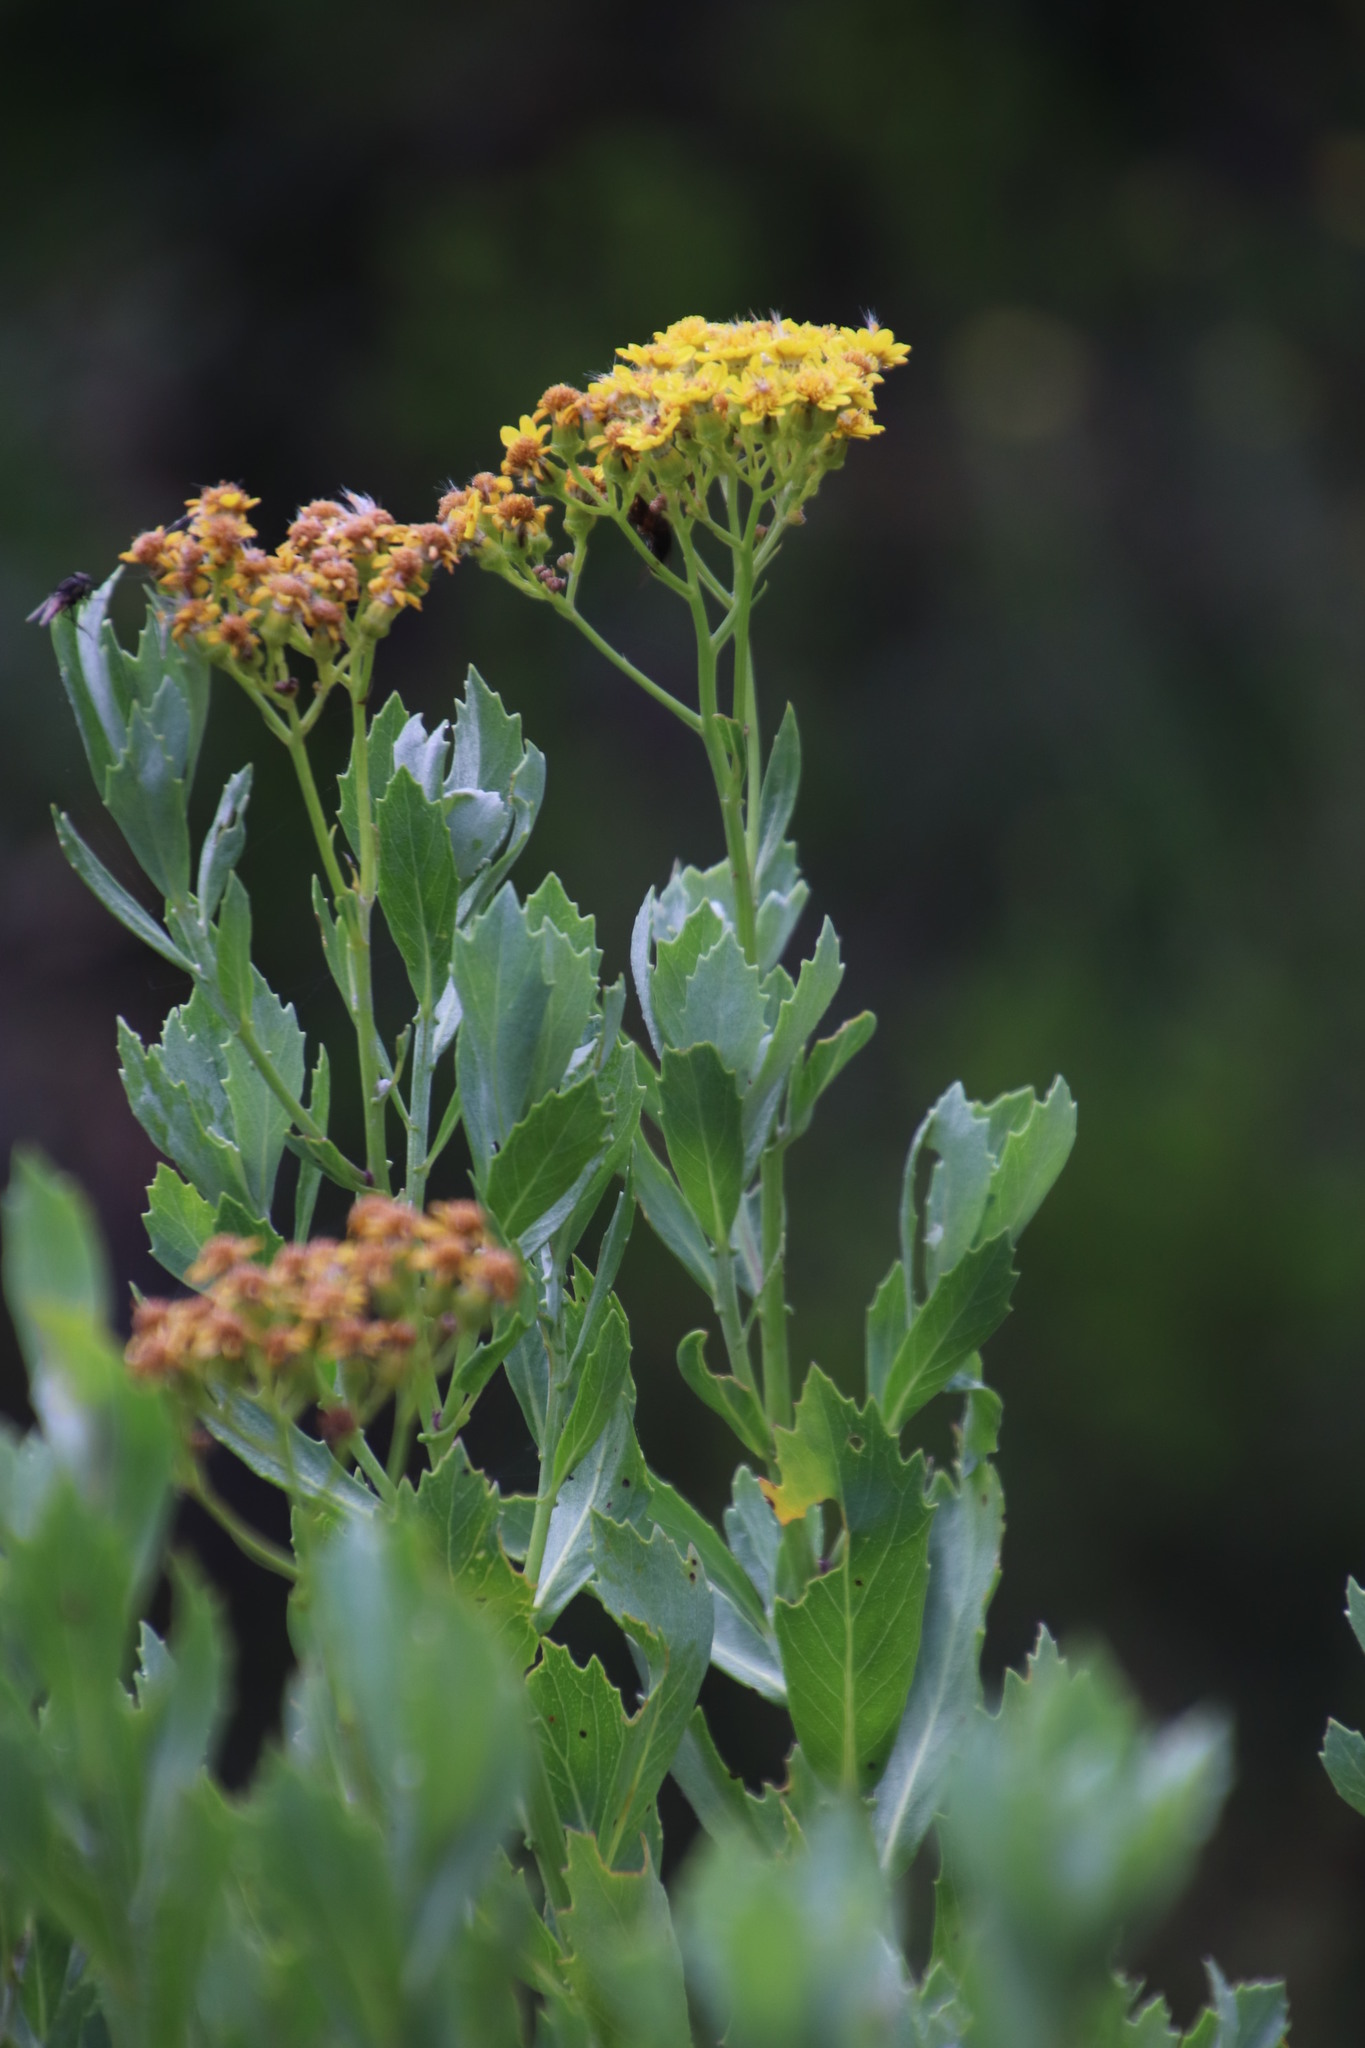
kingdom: Plantae
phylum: Tracheophyta
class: Magnoliopsida
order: Asterales
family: Asteraceae
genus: Senecio
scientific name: Senecio halimifolius
